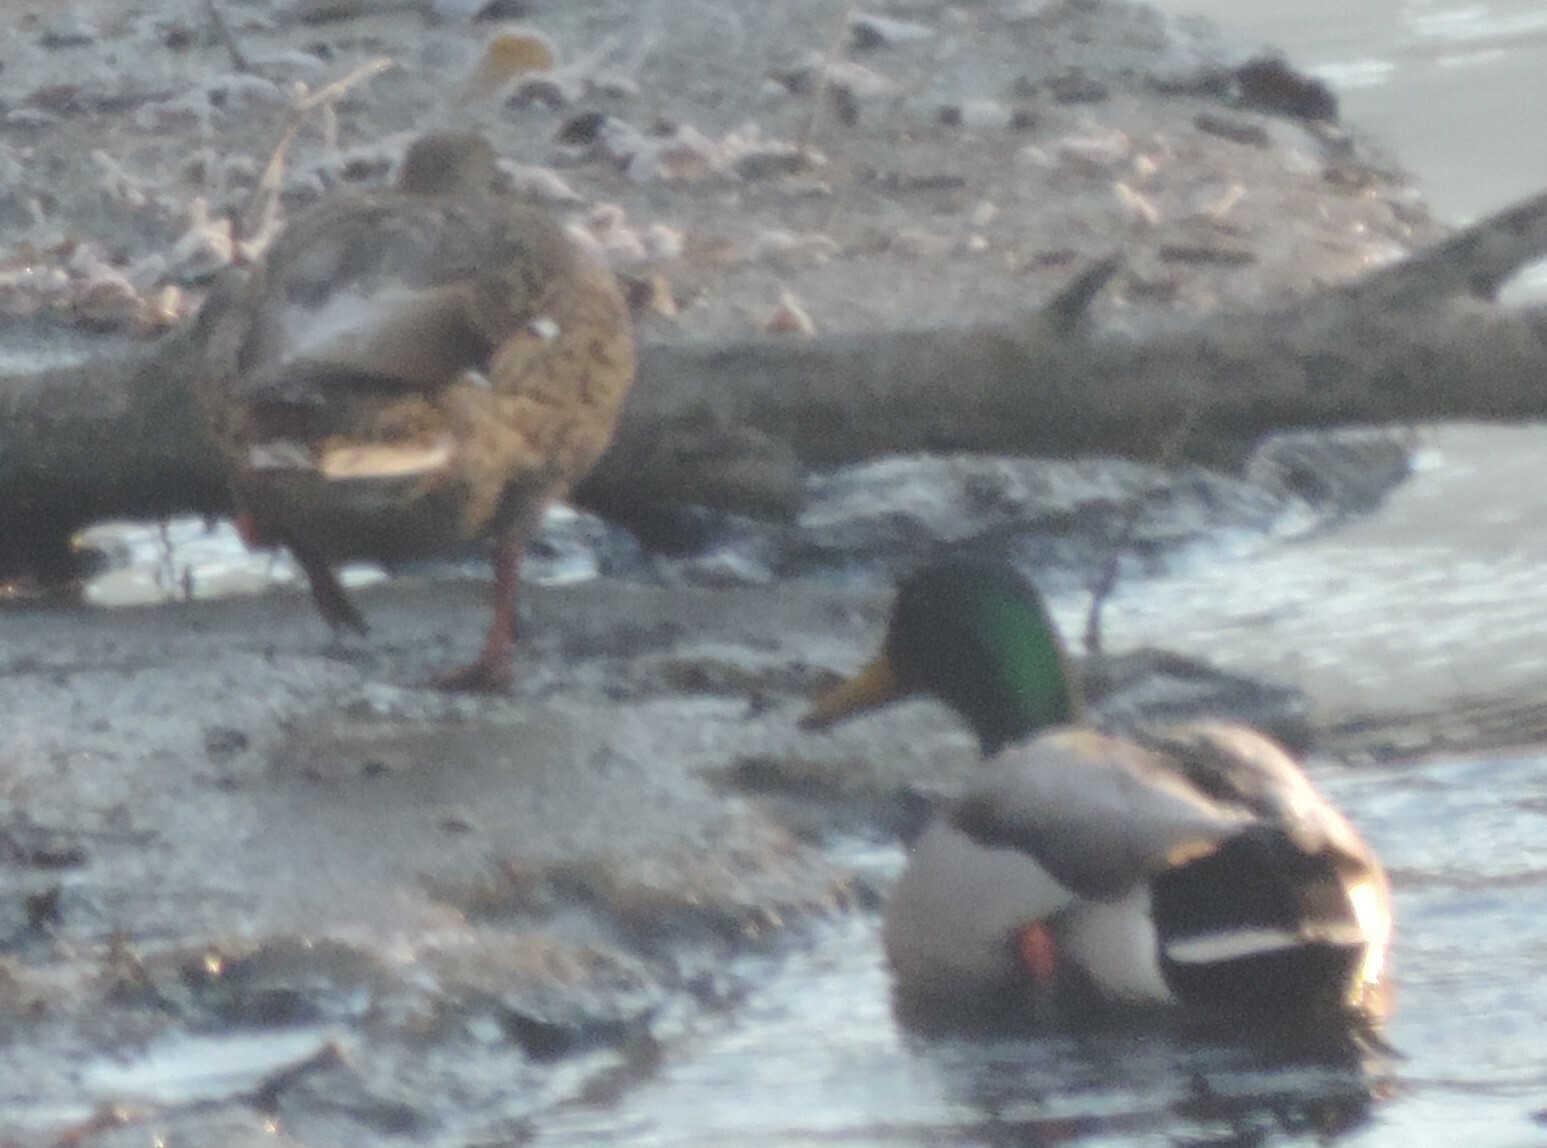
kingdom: Animalia
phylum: Chordata
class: Aves
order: Anseriformes
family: Anatidae
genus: Anas
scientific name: Anas platyrhynchos
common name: Mallard
